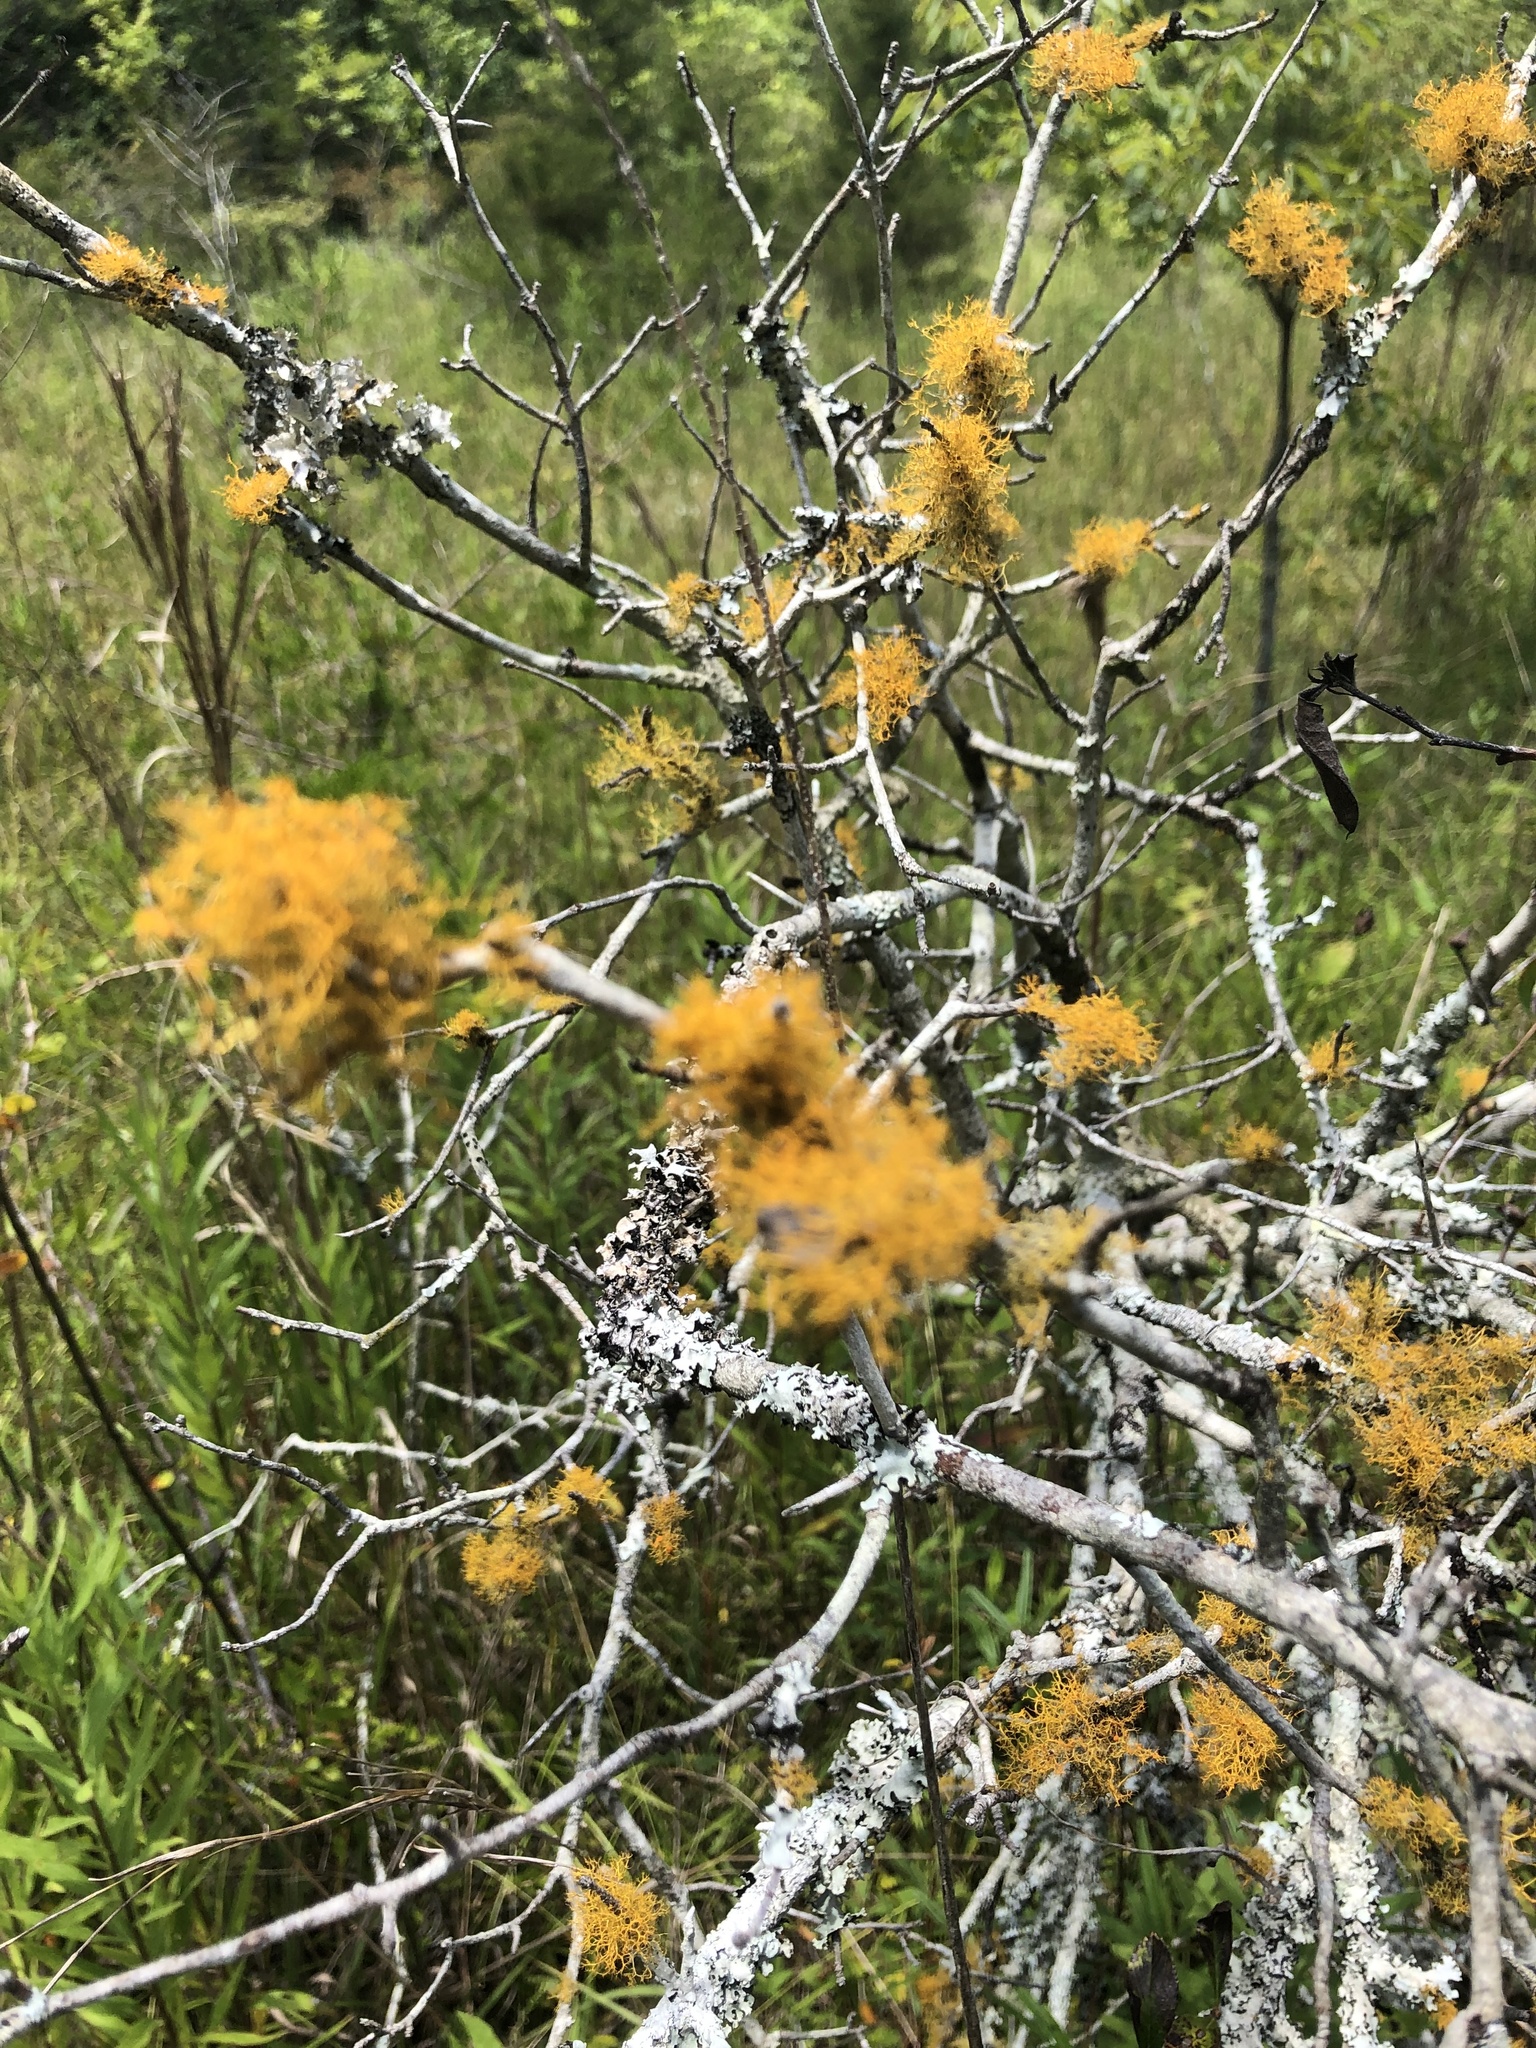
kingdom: Fungi
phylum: Ascomycota
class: Lecanoromycetes
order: Teloschistales
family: Teloschistaceae
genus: Teloschistes
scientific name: Teloschistes exilis
